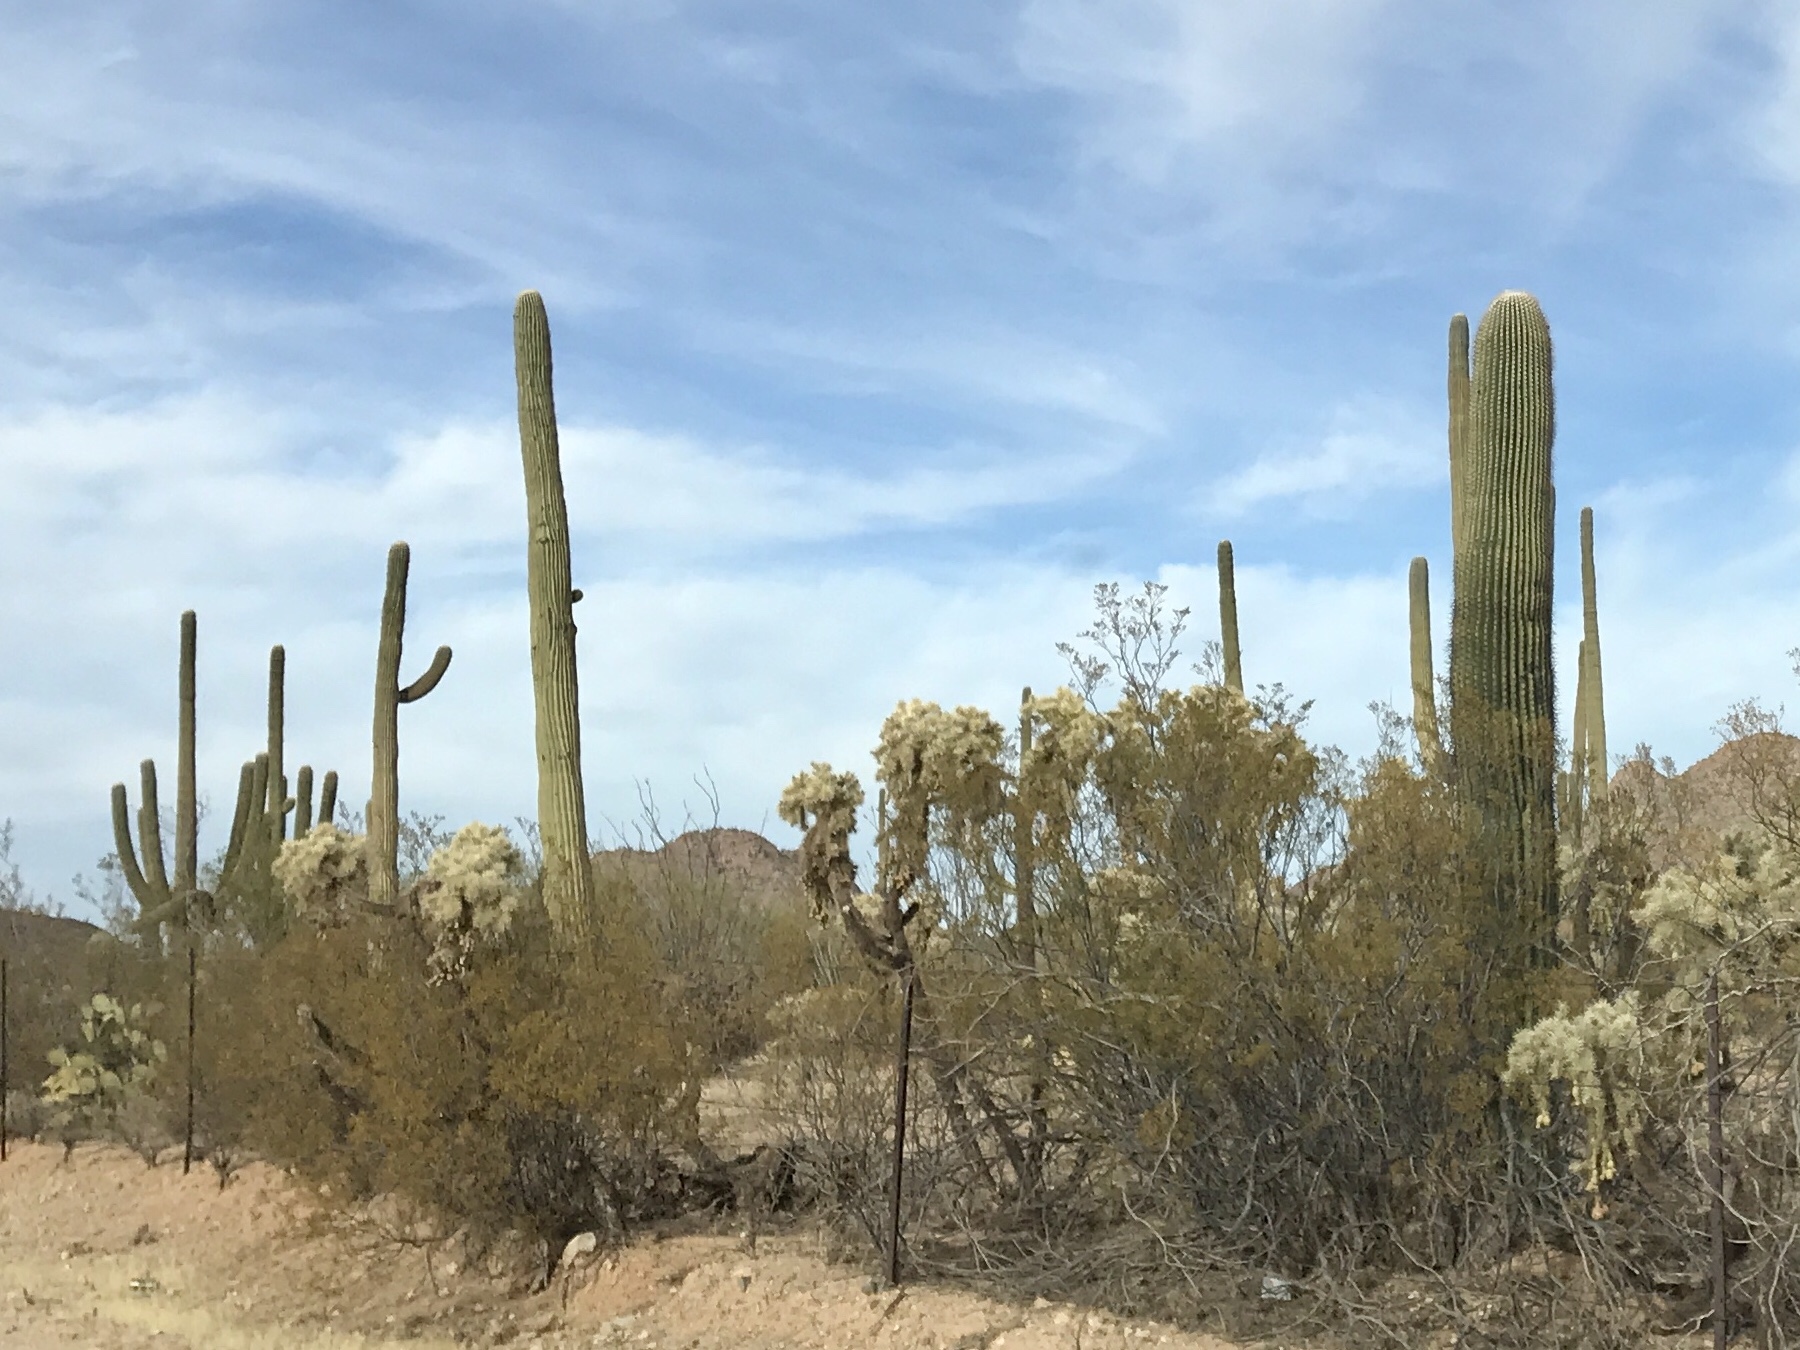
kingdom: Plantae
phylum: Tracheophyta
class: Magnoliopsida
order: Caryophyllales
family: Cactaceae
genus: Carnegiea
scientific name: Carnegiea gigantea
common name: Saguaro
